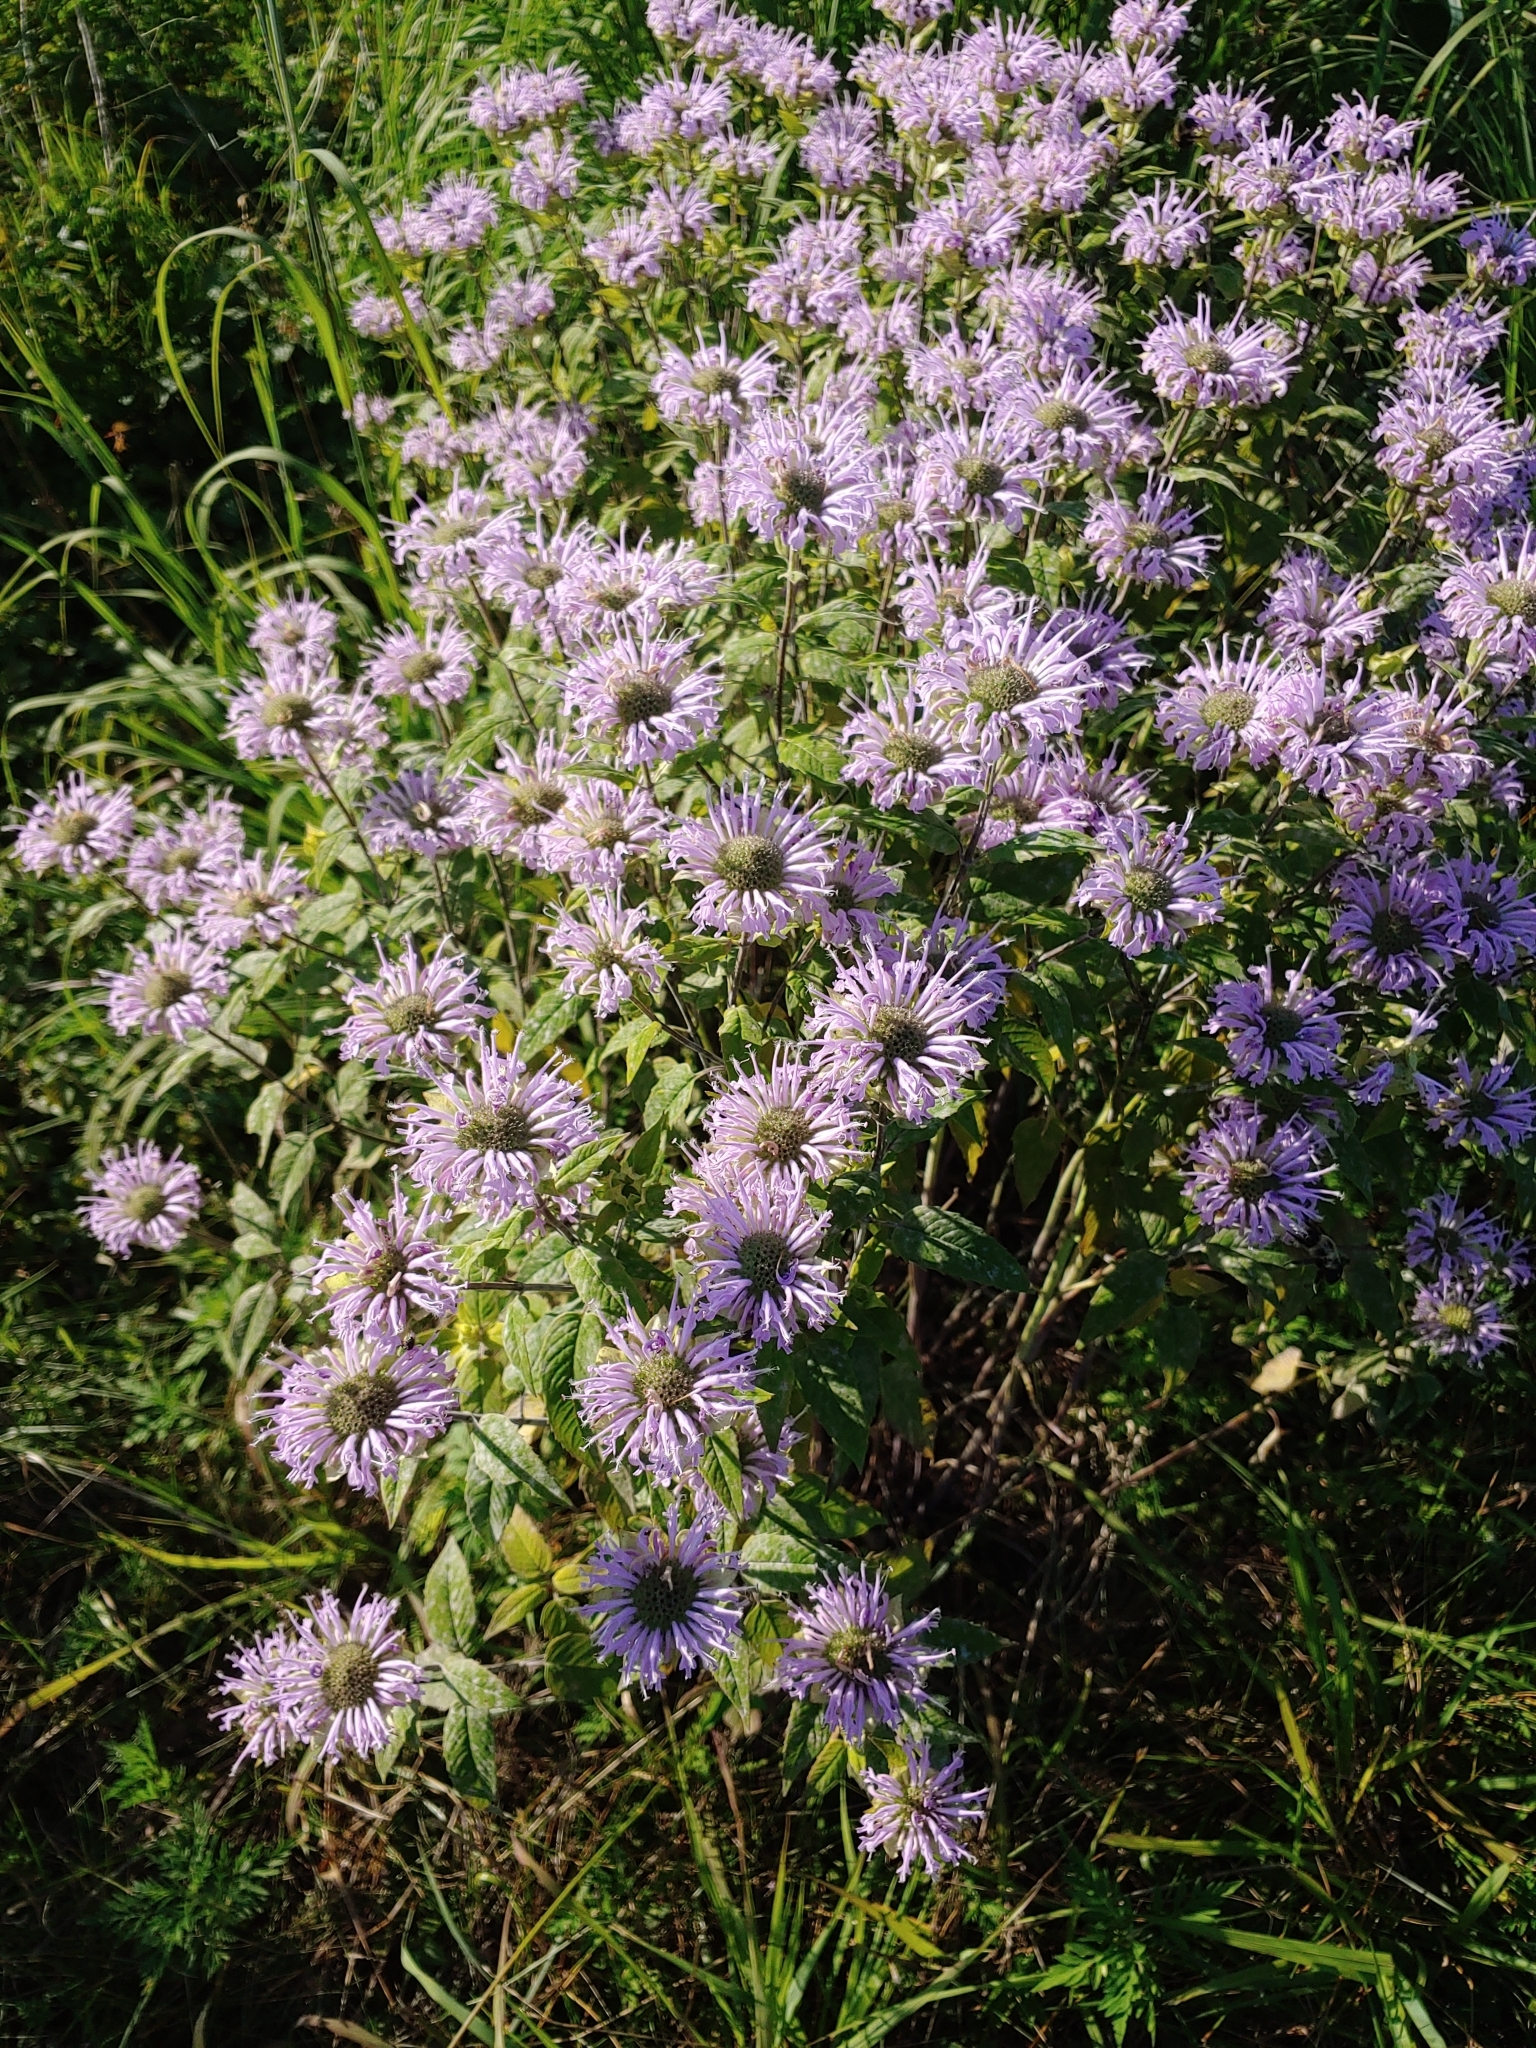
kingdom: Plantae
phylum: Tracheophyta
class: Magnoliopsida
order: Lamiales
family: Lamiaceae
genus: Monarda
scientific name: Monarda fistulosa
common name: Purple beebalm
